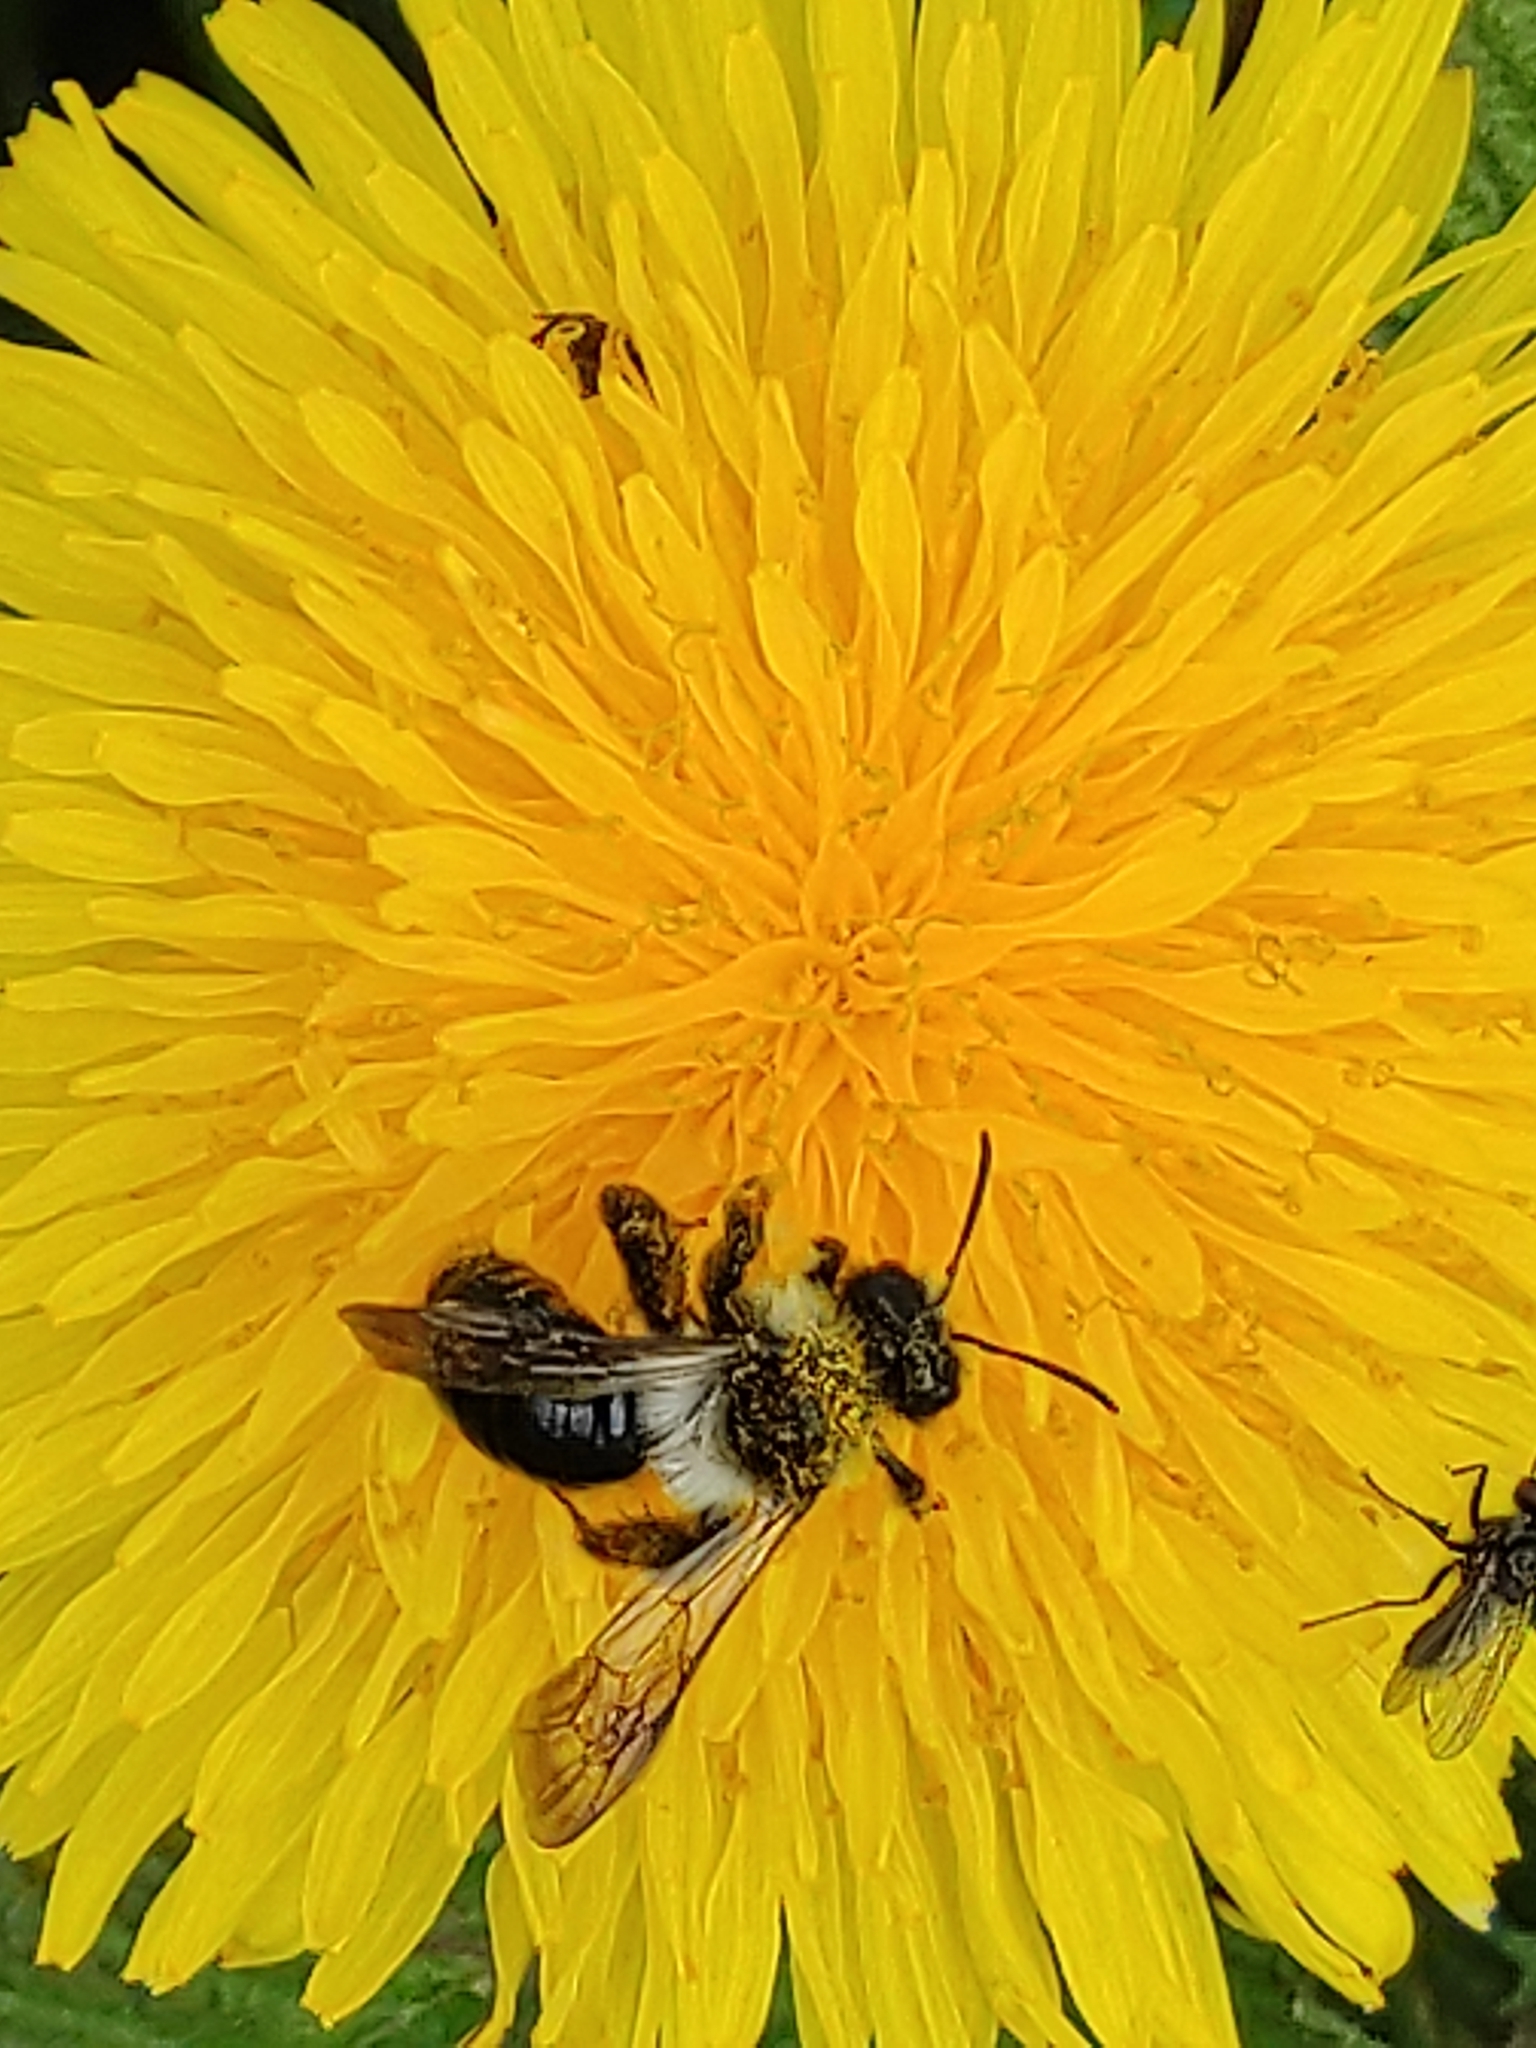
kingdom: Animalia
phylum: Arthropoda
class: Insecta
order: Hymenoptera
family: Andrenidae
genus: Andrena
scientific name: Andrena cineraria
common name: Ashy mining bee
